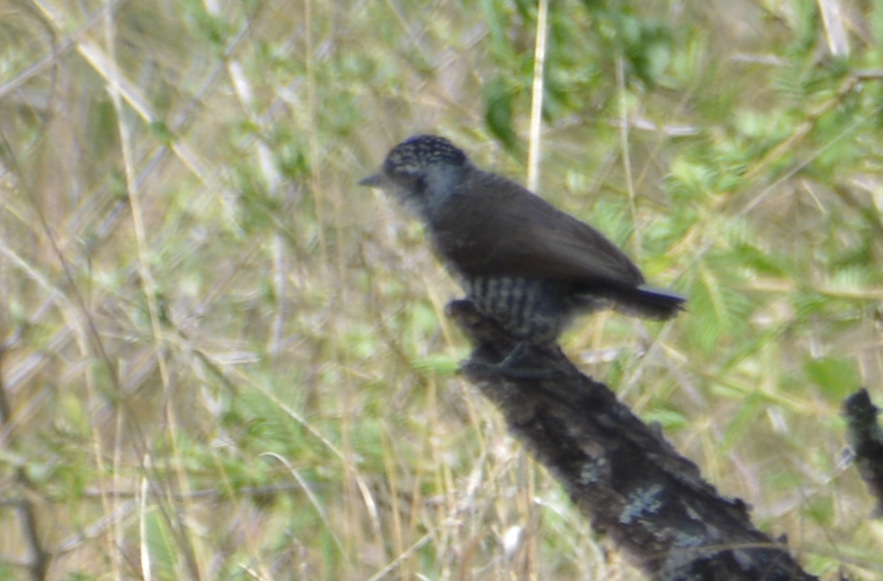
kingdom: Animalia
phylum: Chordata
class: Aves
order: Piciformes
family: Picidae
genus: Picumnus
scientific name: Picumnus cirratus
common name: White-barred piculet
